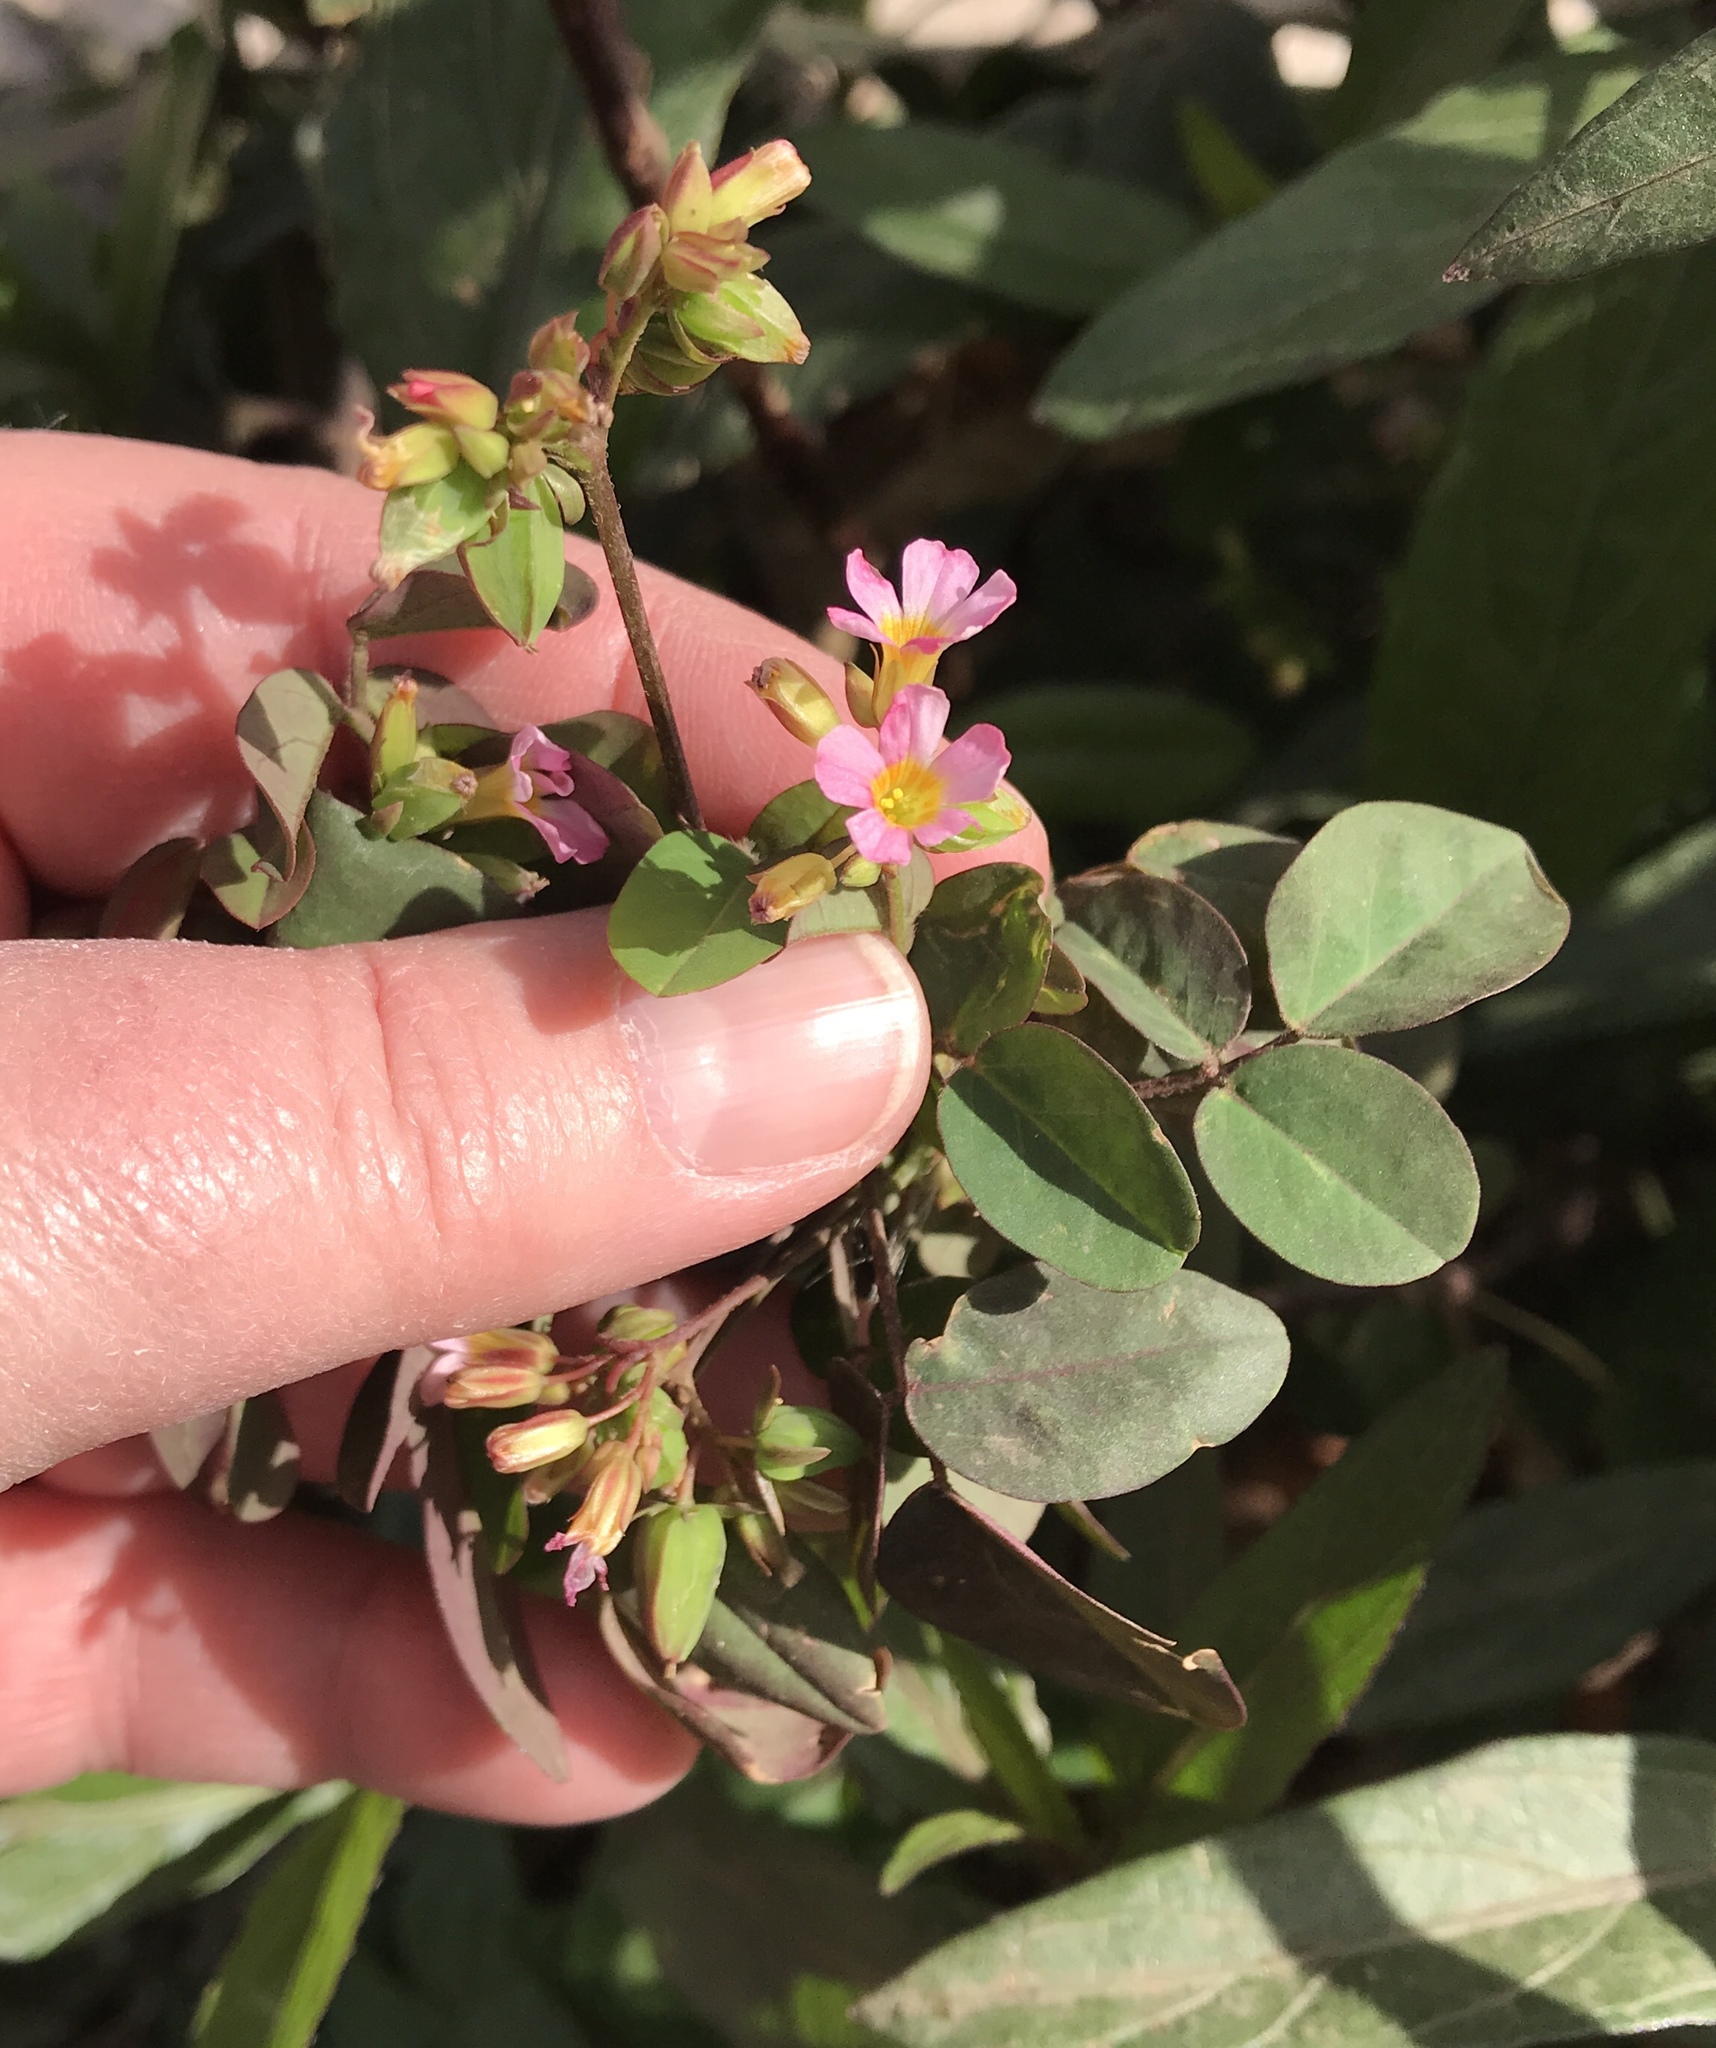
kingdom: Plantae
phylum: Tracheophyta
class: Magnoliopsida
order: Oxalidales
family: Oxalidaceae
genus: Oxalis
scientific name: Oxalis barrelieri
